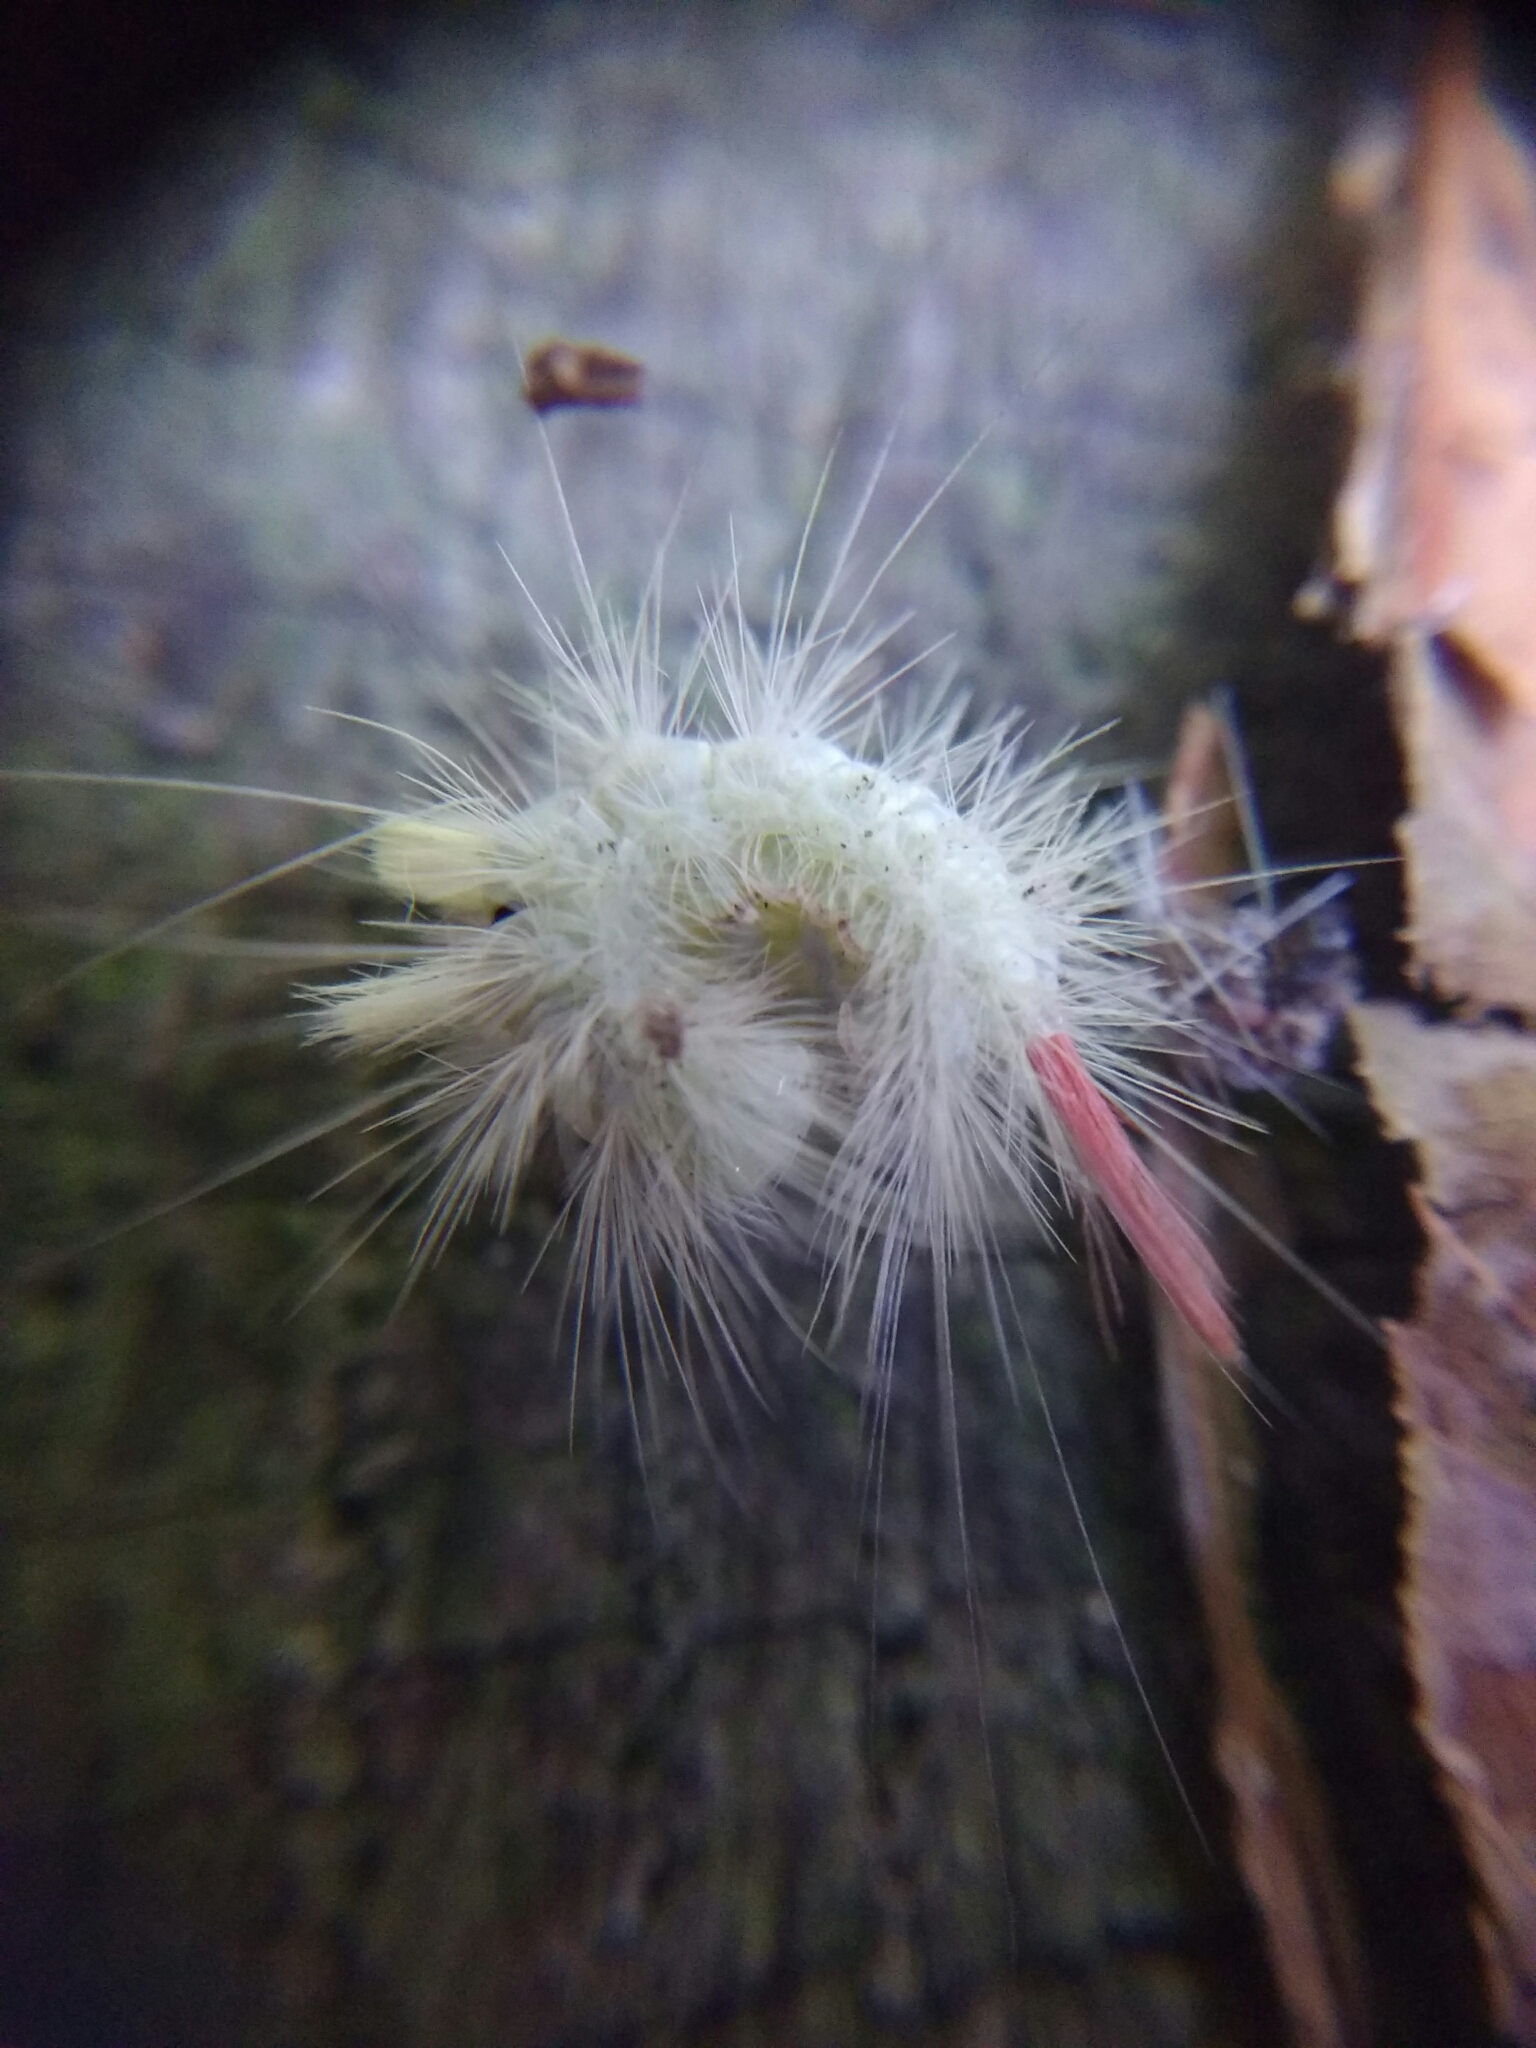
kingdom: Animalia
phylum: Arthropoda
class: Insecta
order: Lepidoptera
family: Erebidae
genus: Calliteara
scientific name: Calliteara pudibunda
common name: Pale tussock
